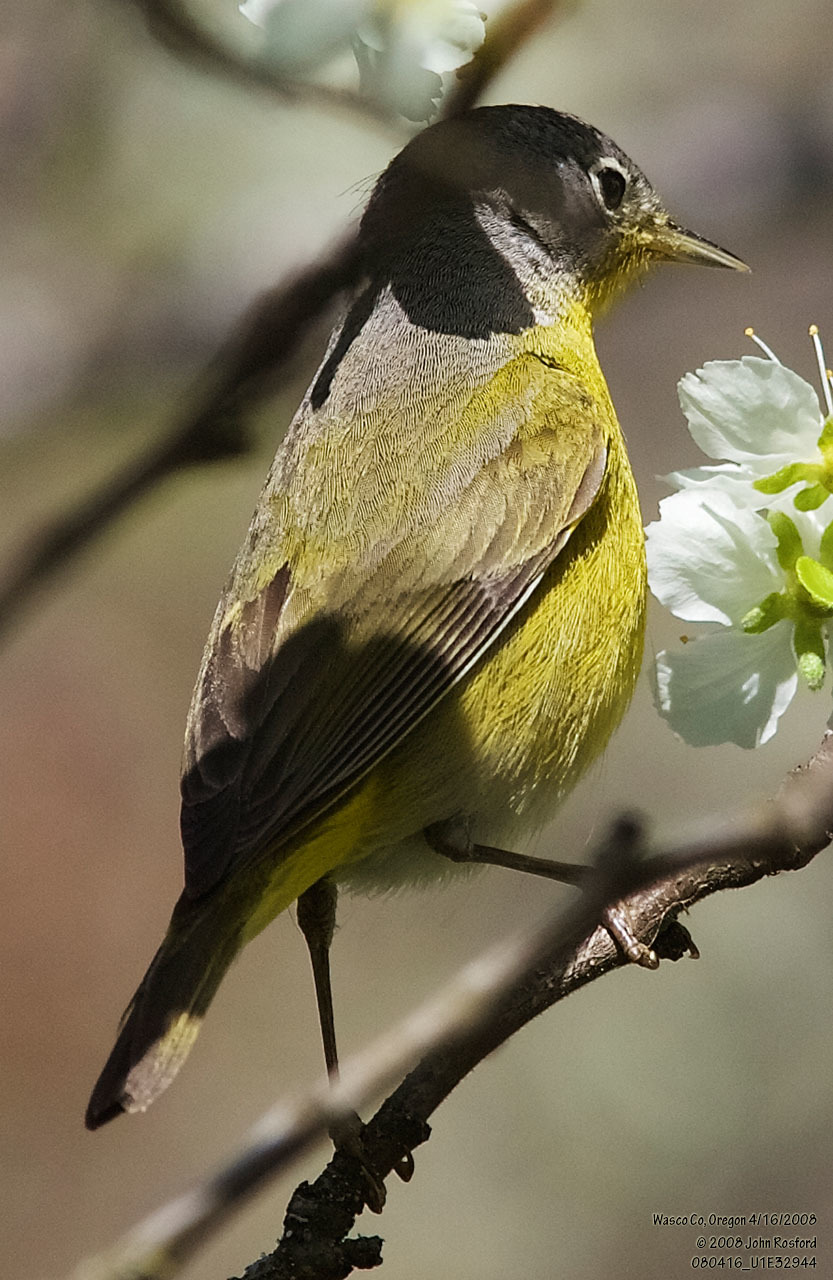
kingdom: Animalia
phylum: Chordata
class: Aves
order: Passeriformes
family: Parulidae
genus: Leiothlypis
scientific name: Leiothlypis ruficapilla
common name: Nashville warbler
